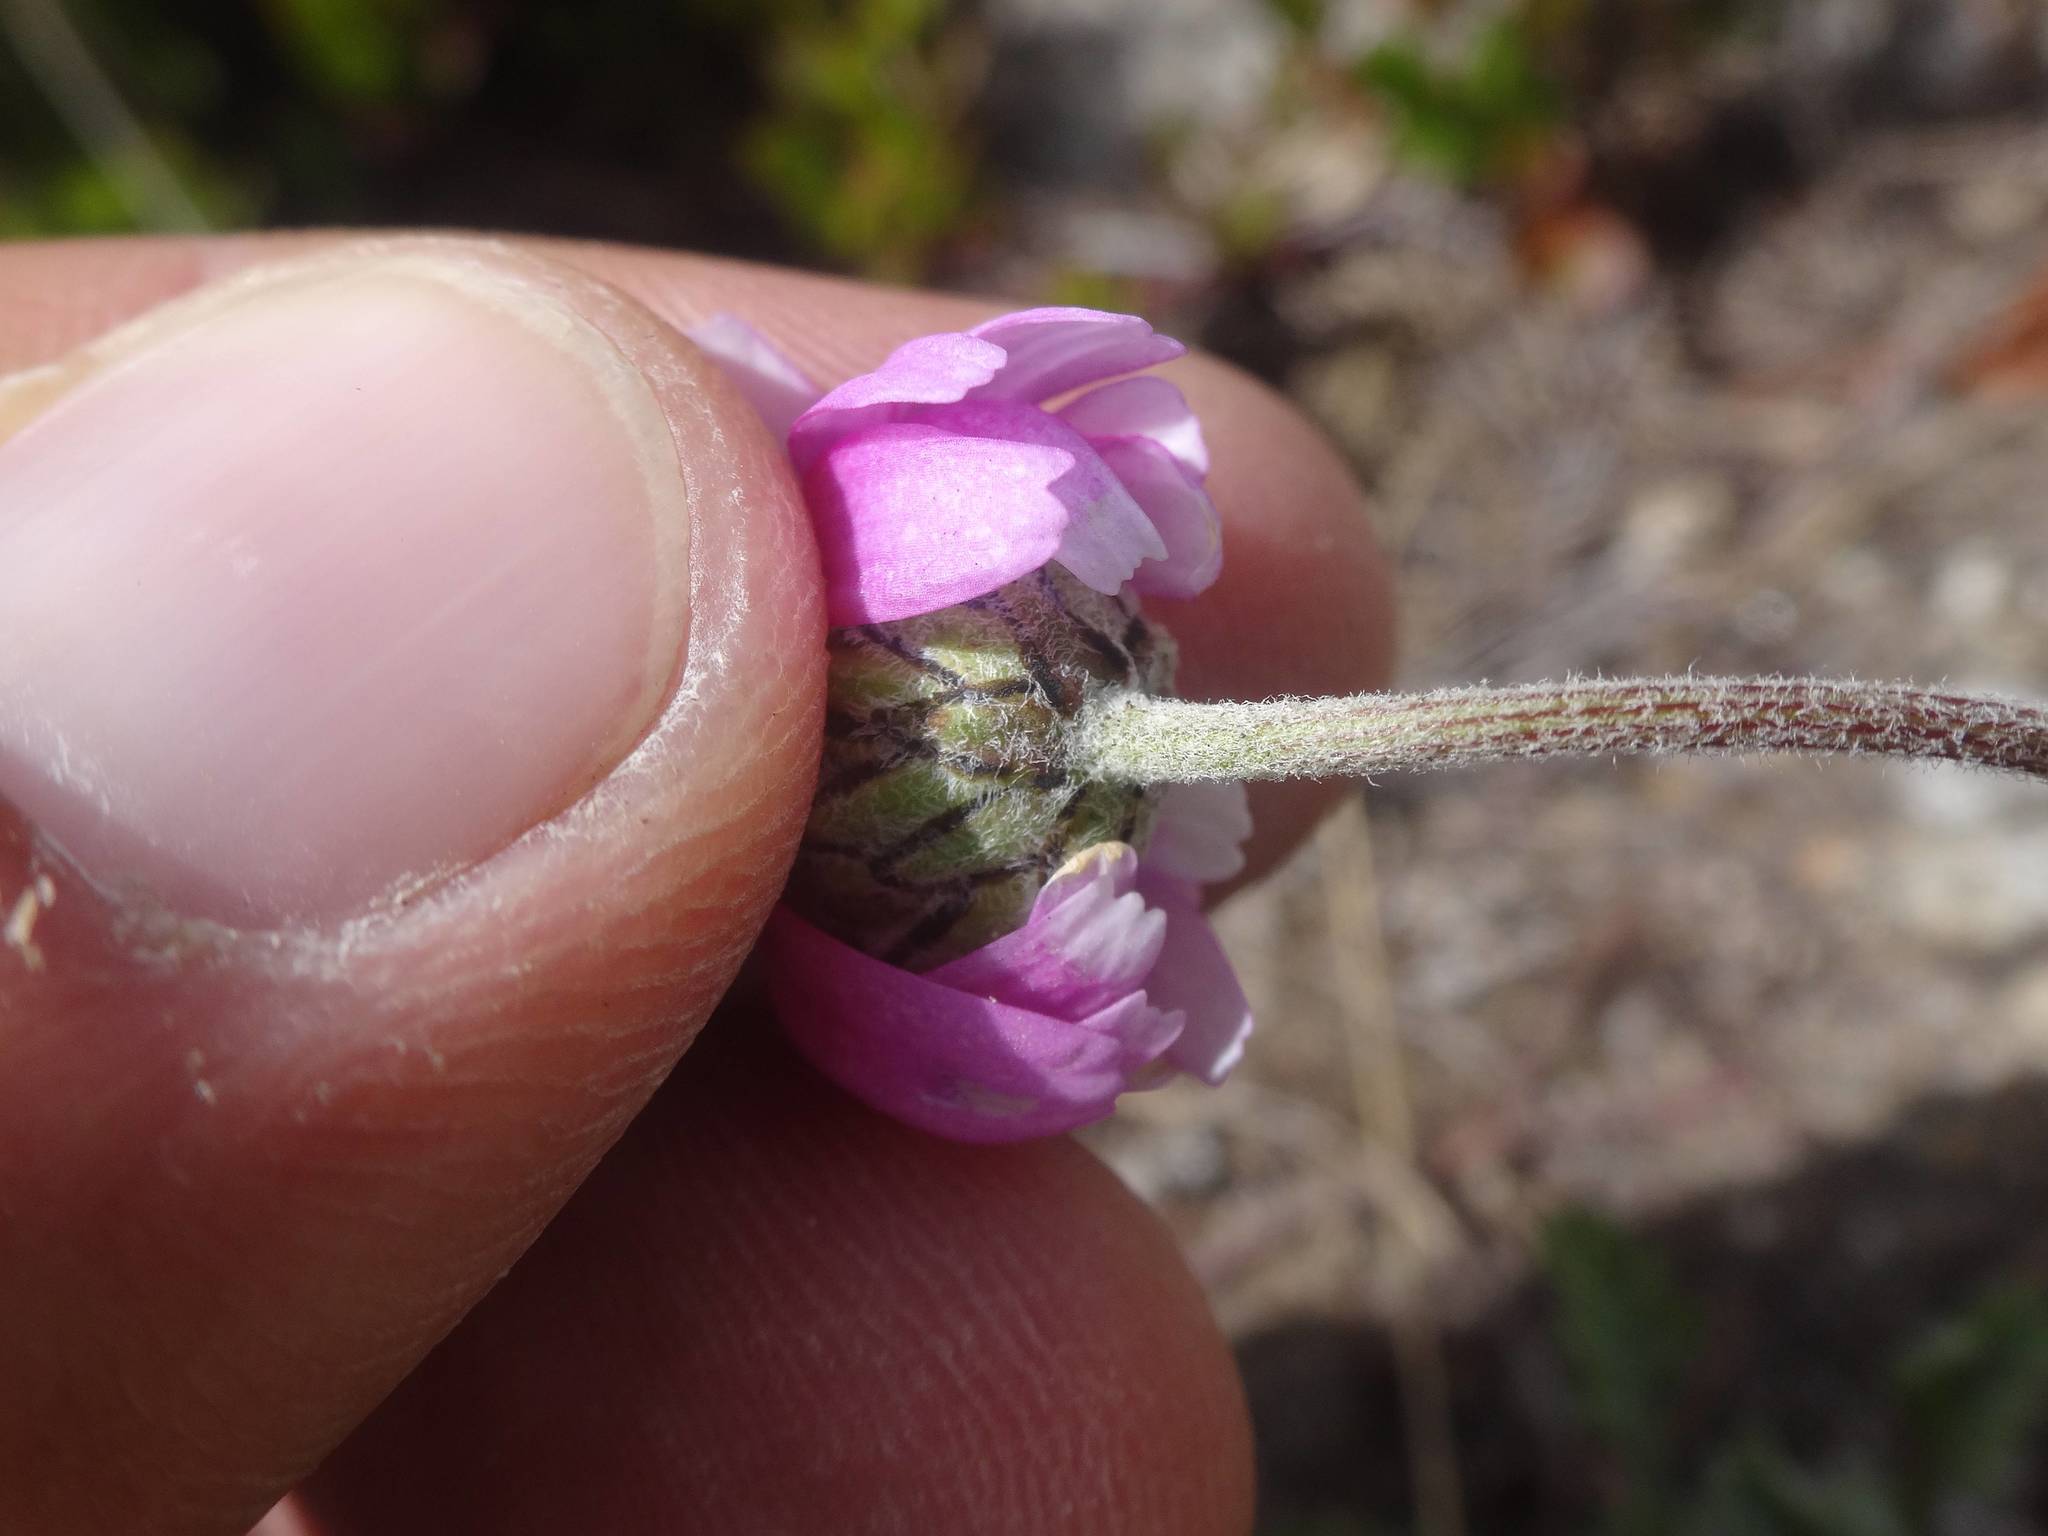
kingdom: Plantae
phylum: Tracheophyta
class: Magnoliopsida
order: Asterales
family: Asteraceae
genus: Leucanthemopsis
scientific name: Leucanthemopsis alpina
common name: Alpine moon daisy
